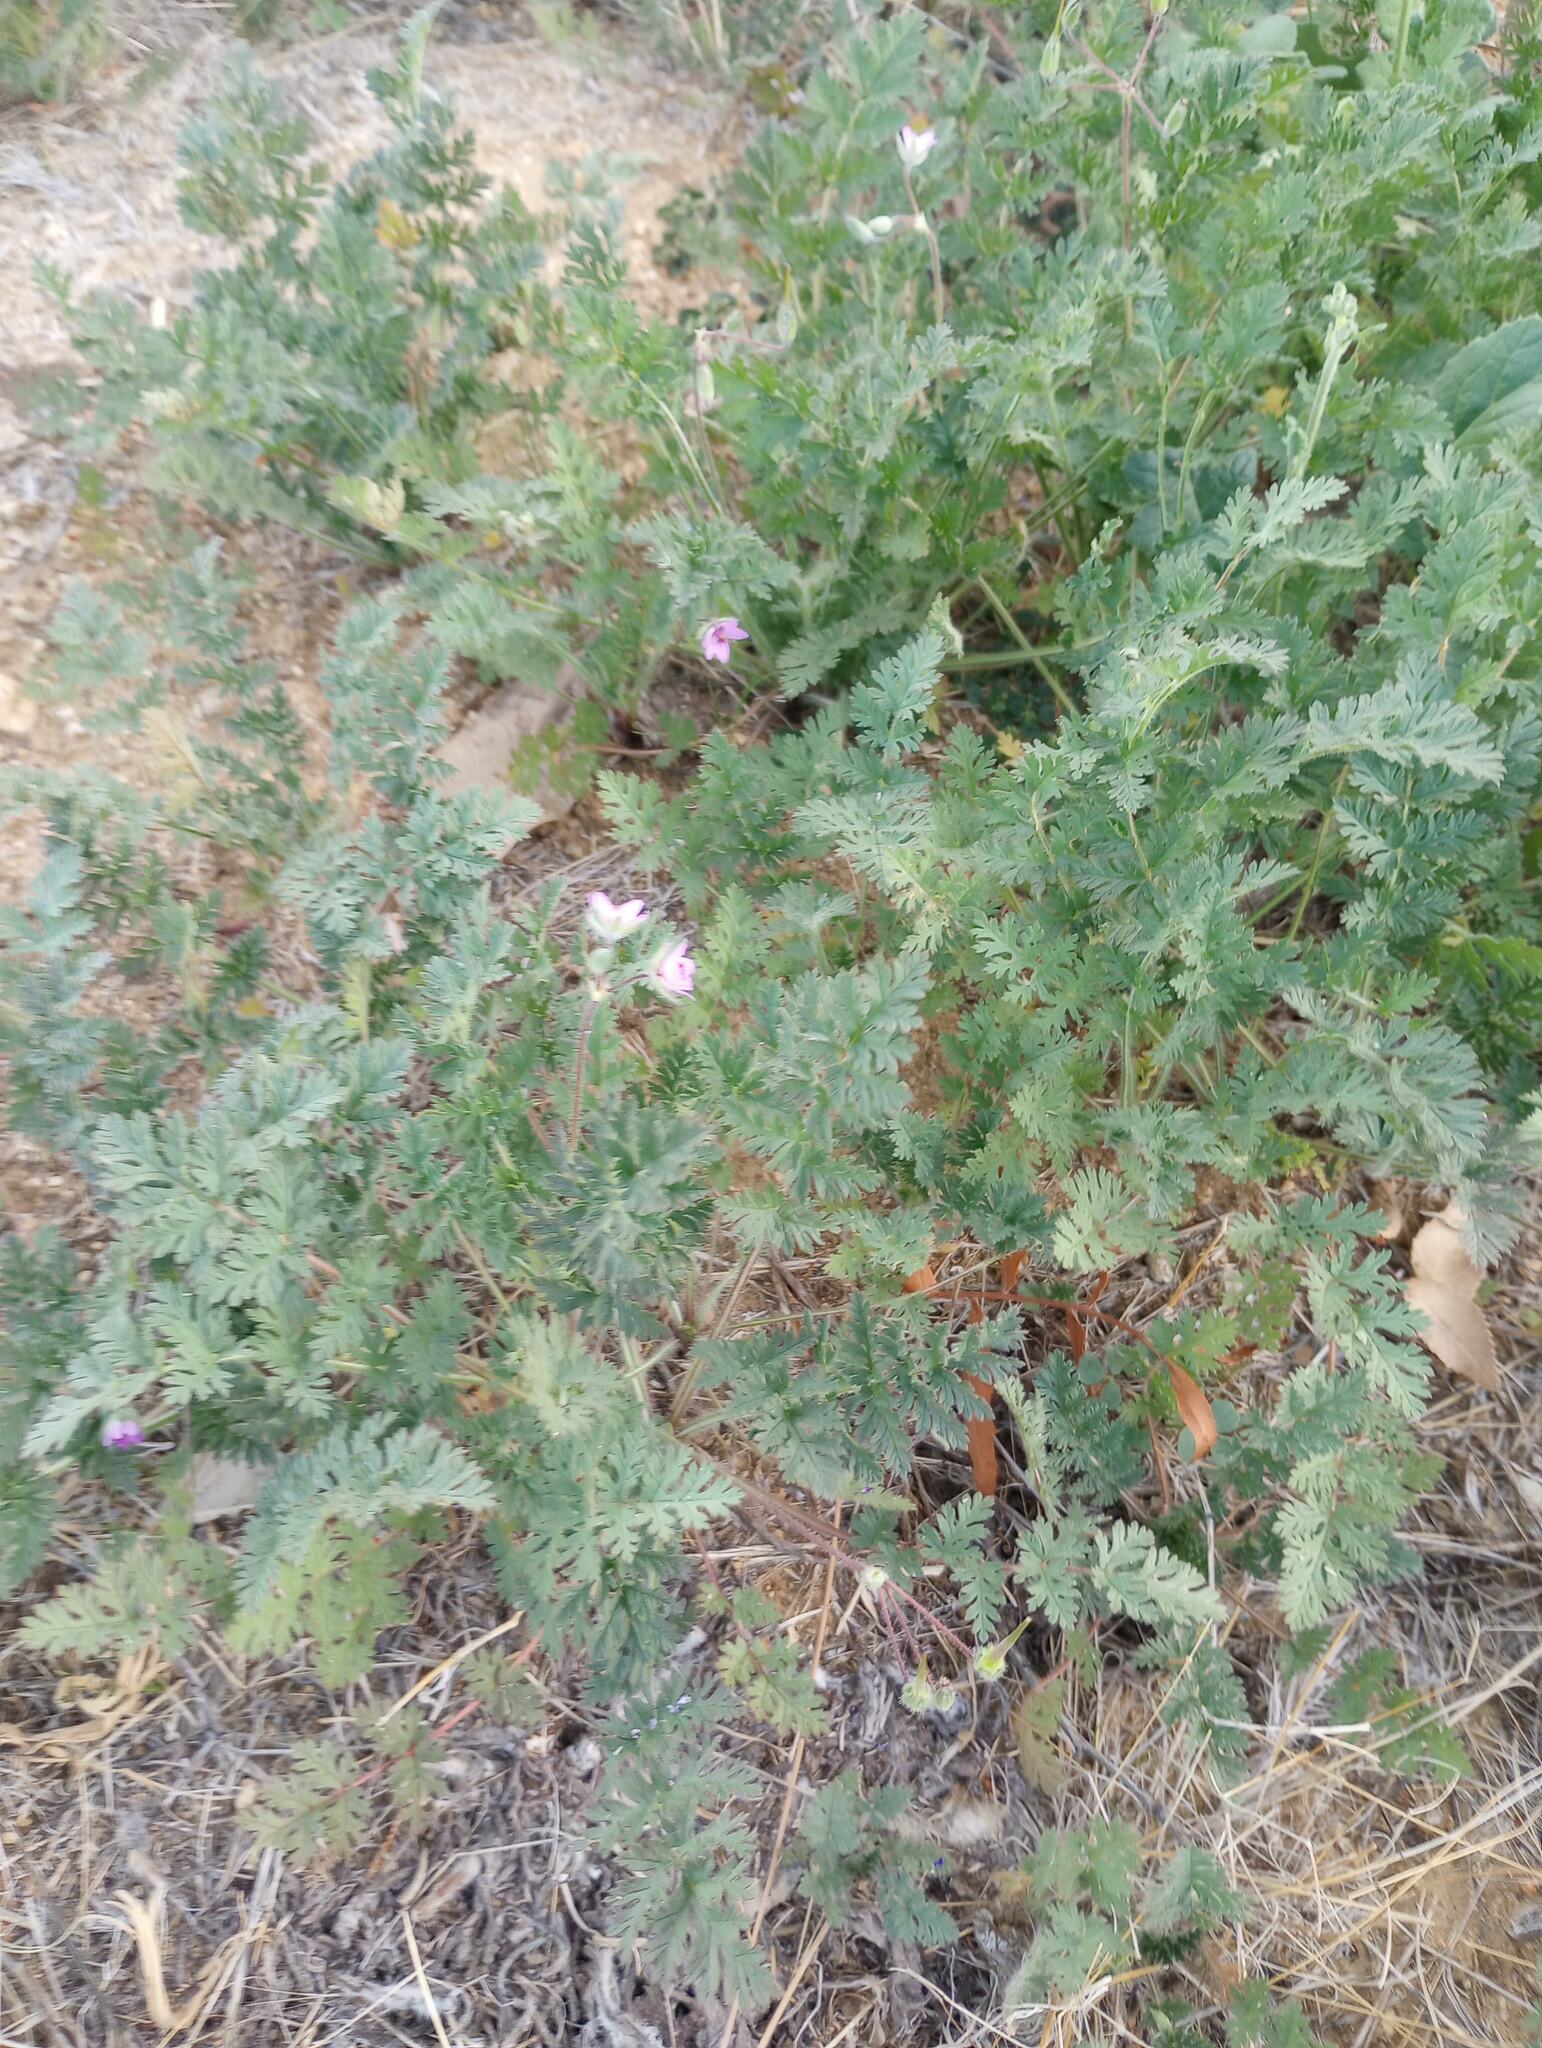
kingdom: Plantae
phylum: Tracheophyta
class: Magnoliopsida
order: Geraniales
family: Geraniaceae
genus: Erodium
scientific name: Erodium cicutarium
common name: Common stork's-bill
